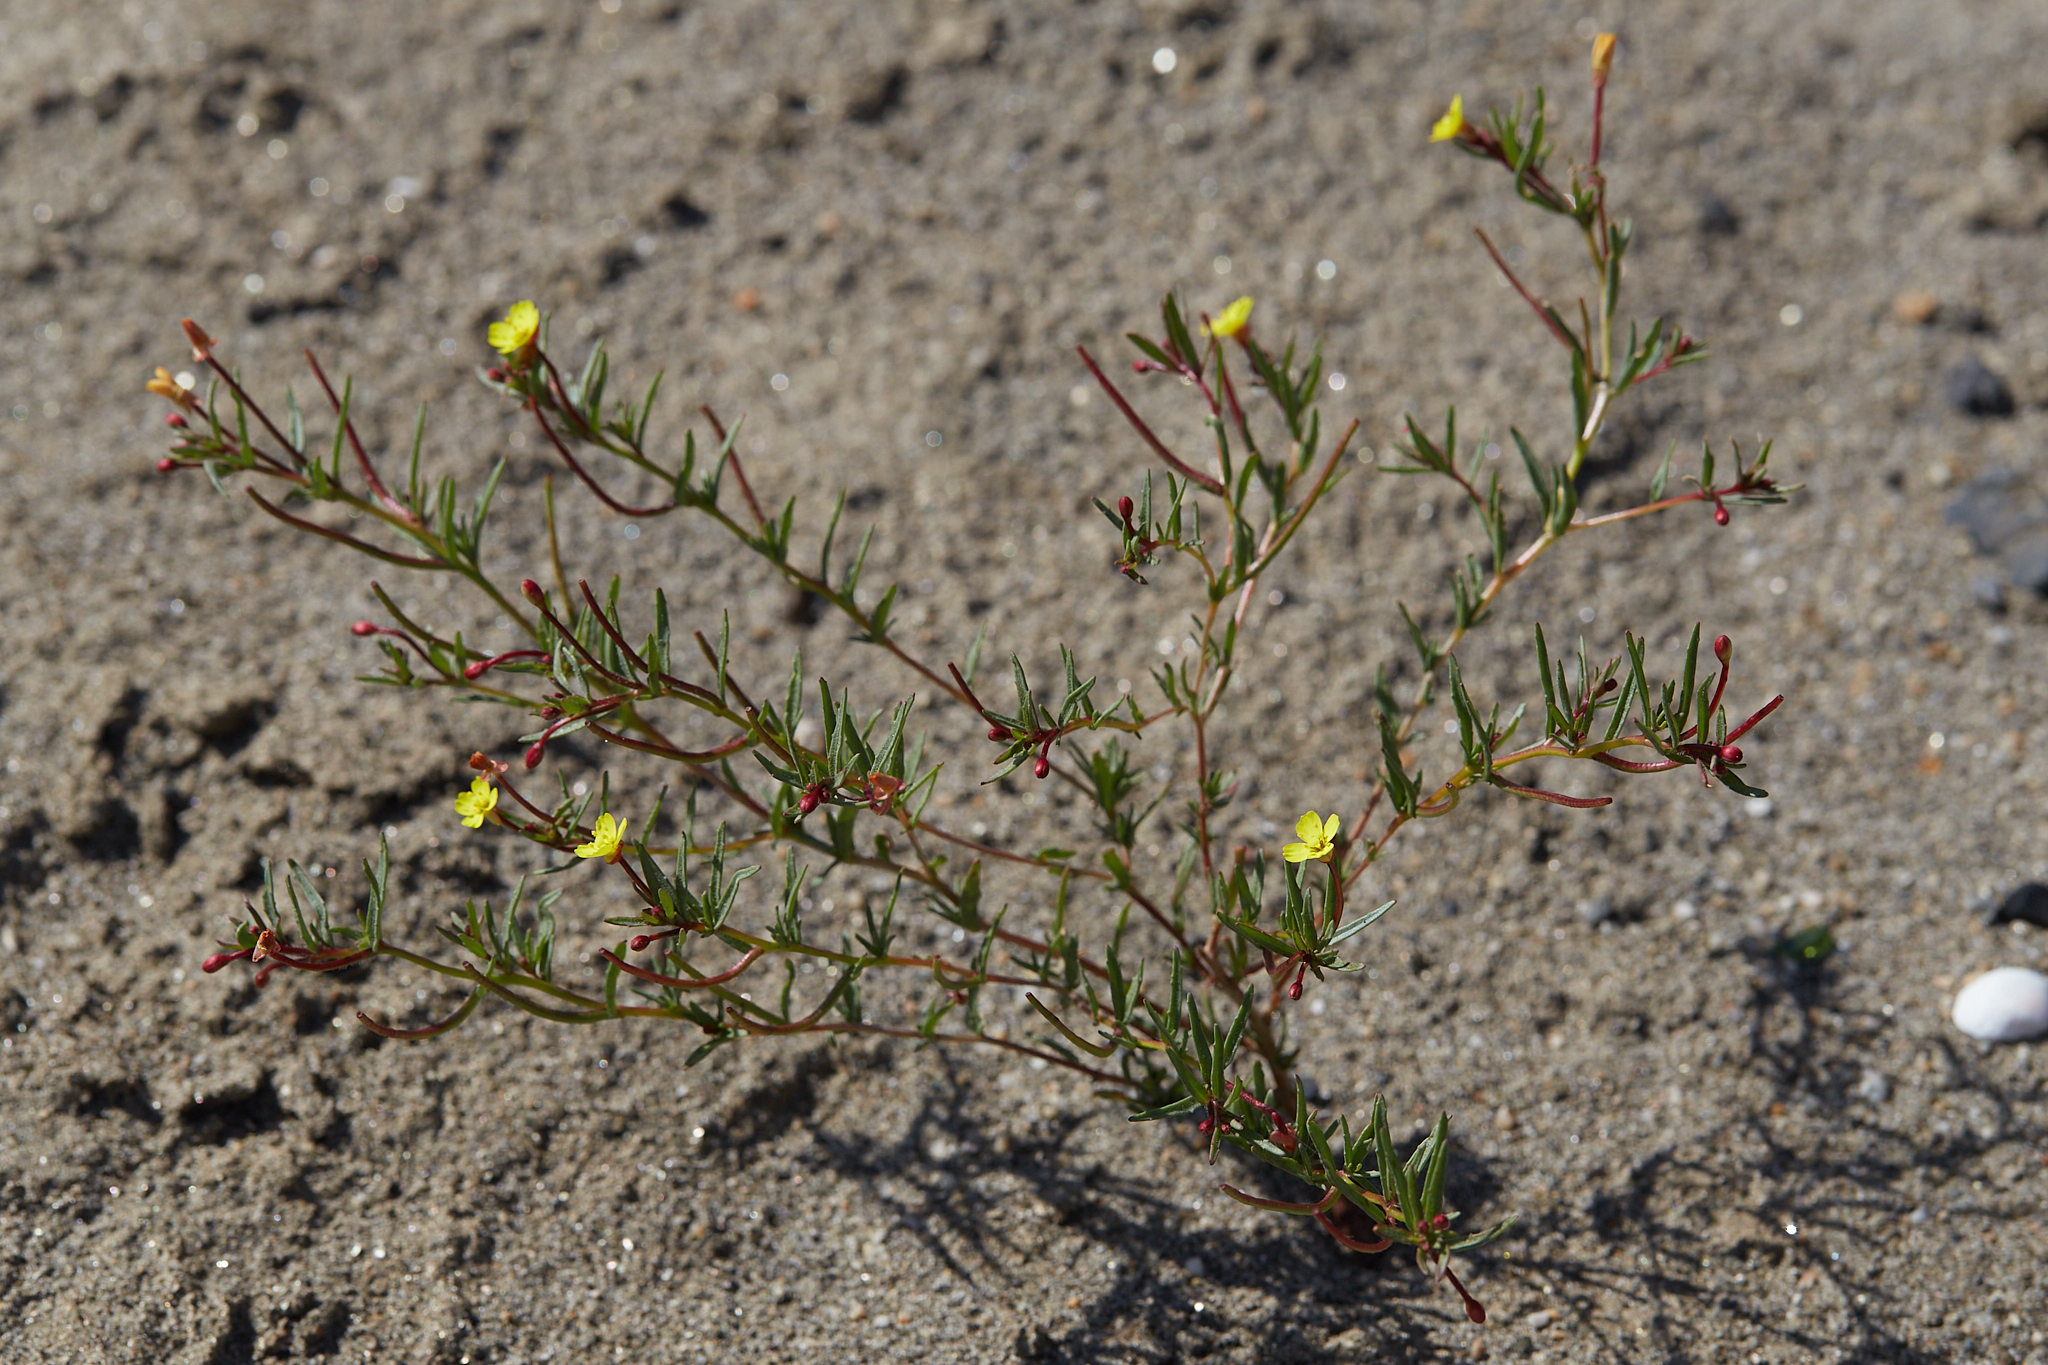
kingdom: Plantae
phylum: Tracheophyta
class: Magnoliopsida
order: Myrtales
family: Onagraceae
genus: Camissonia
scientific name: Camissonia contorta
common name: Contorted suncup
